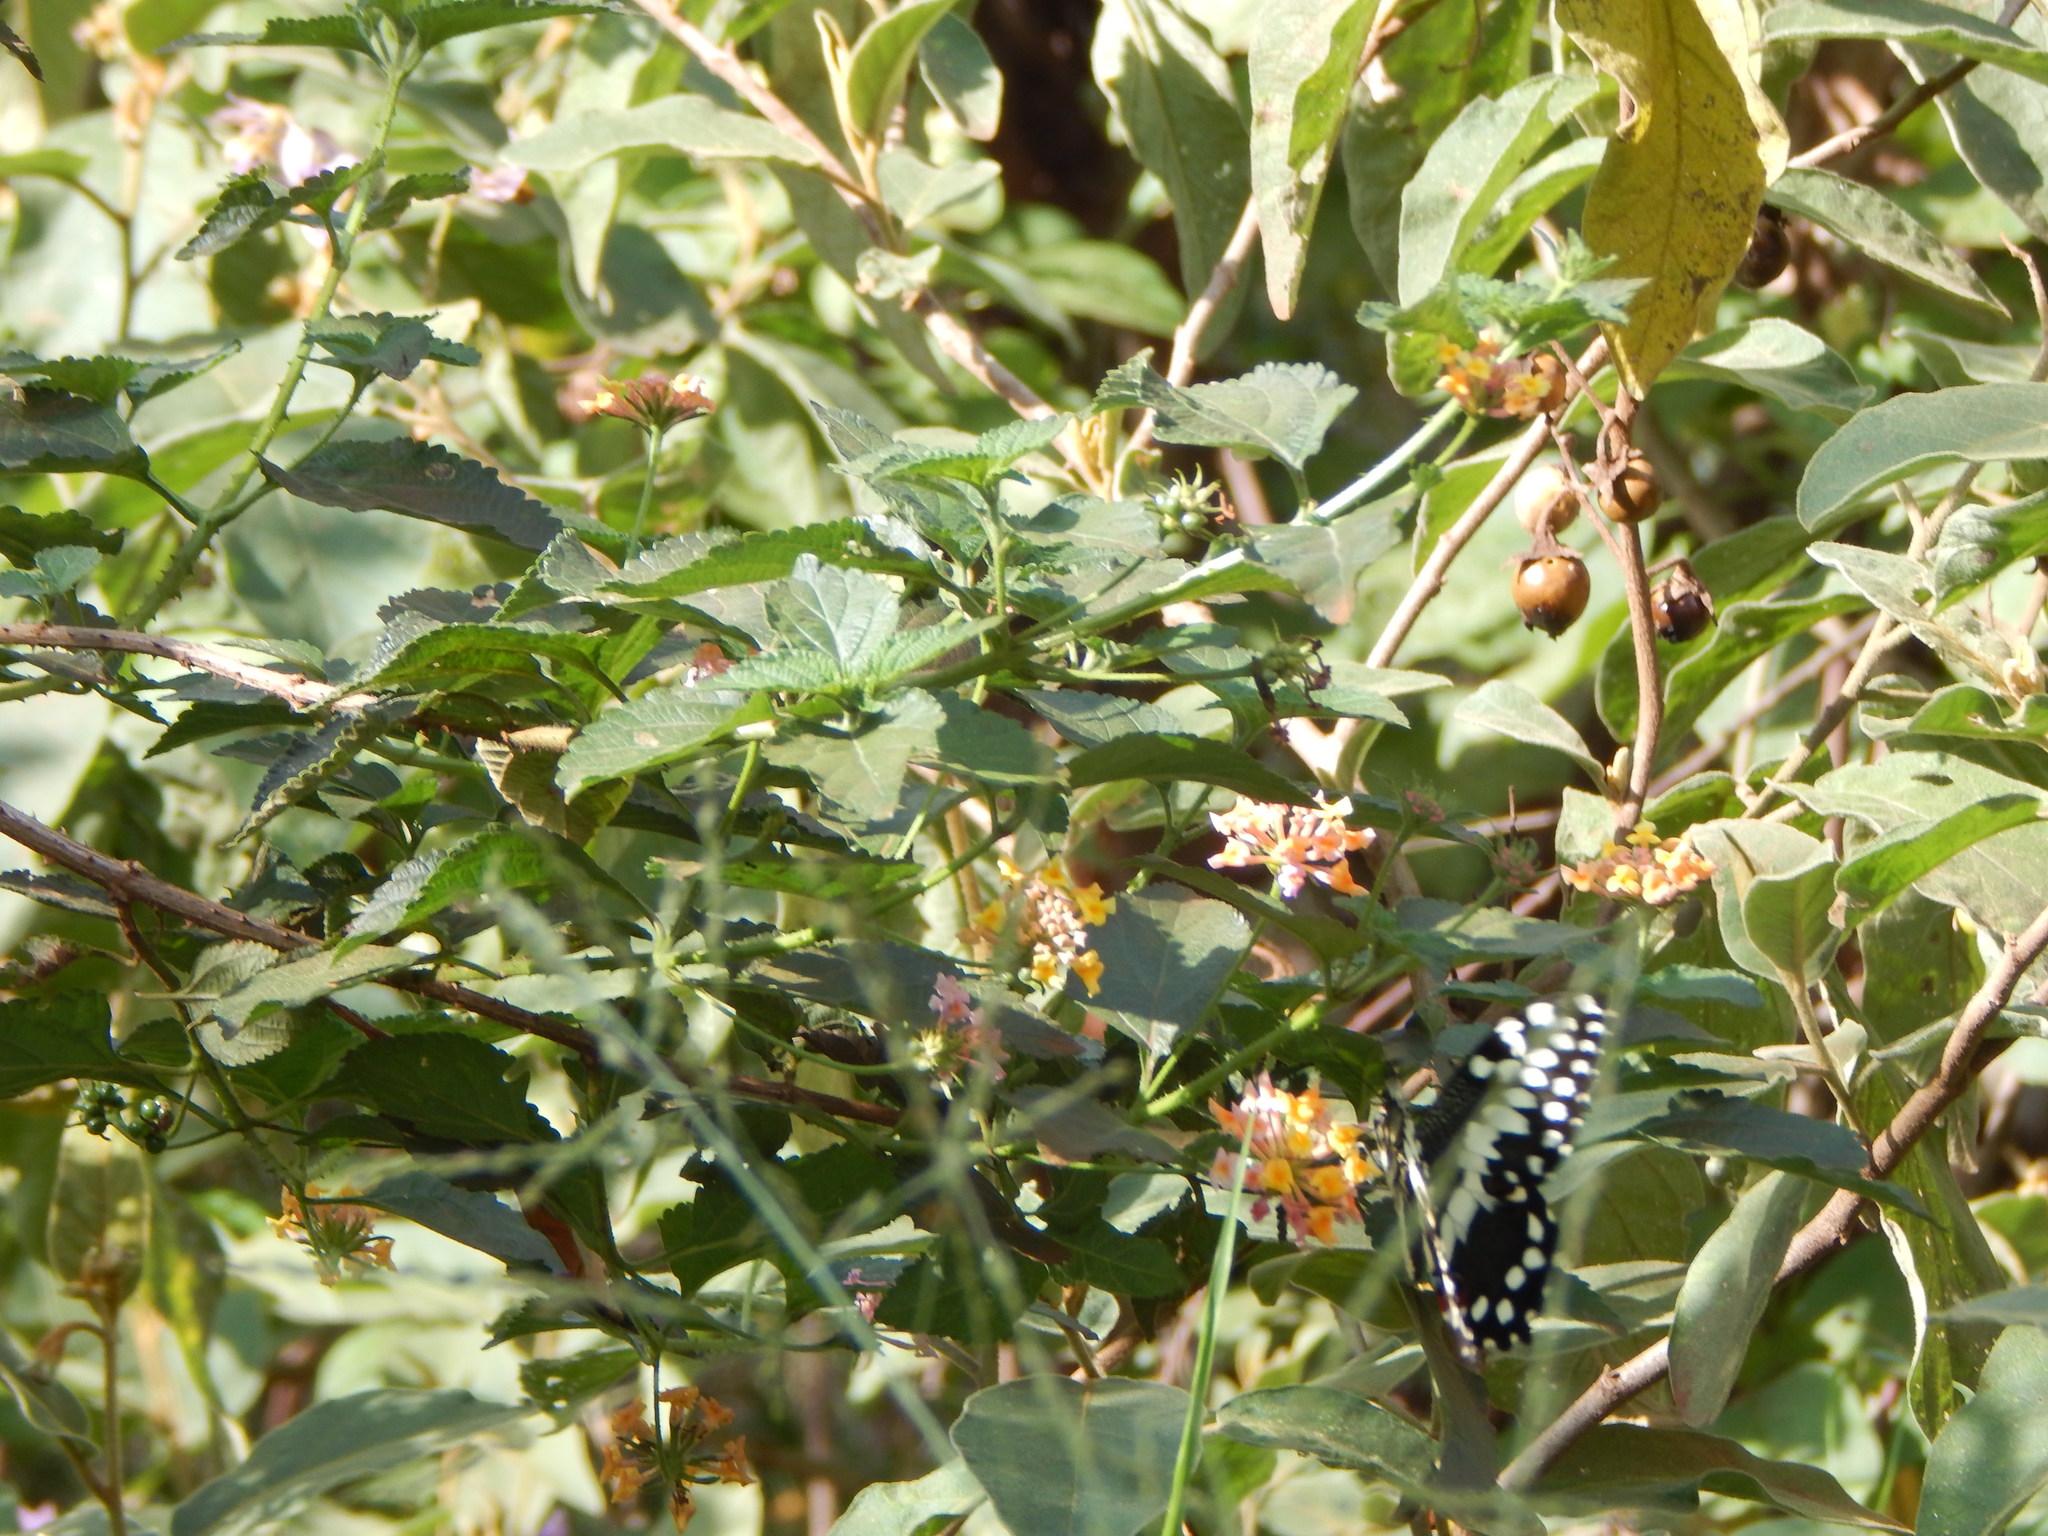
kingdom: Animalia
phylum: Arthropoda
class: Insecta
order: Lepidoptera
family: Papilionidae
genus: Papilio
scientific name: Papilio demodocus
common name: Christmas butterfly
